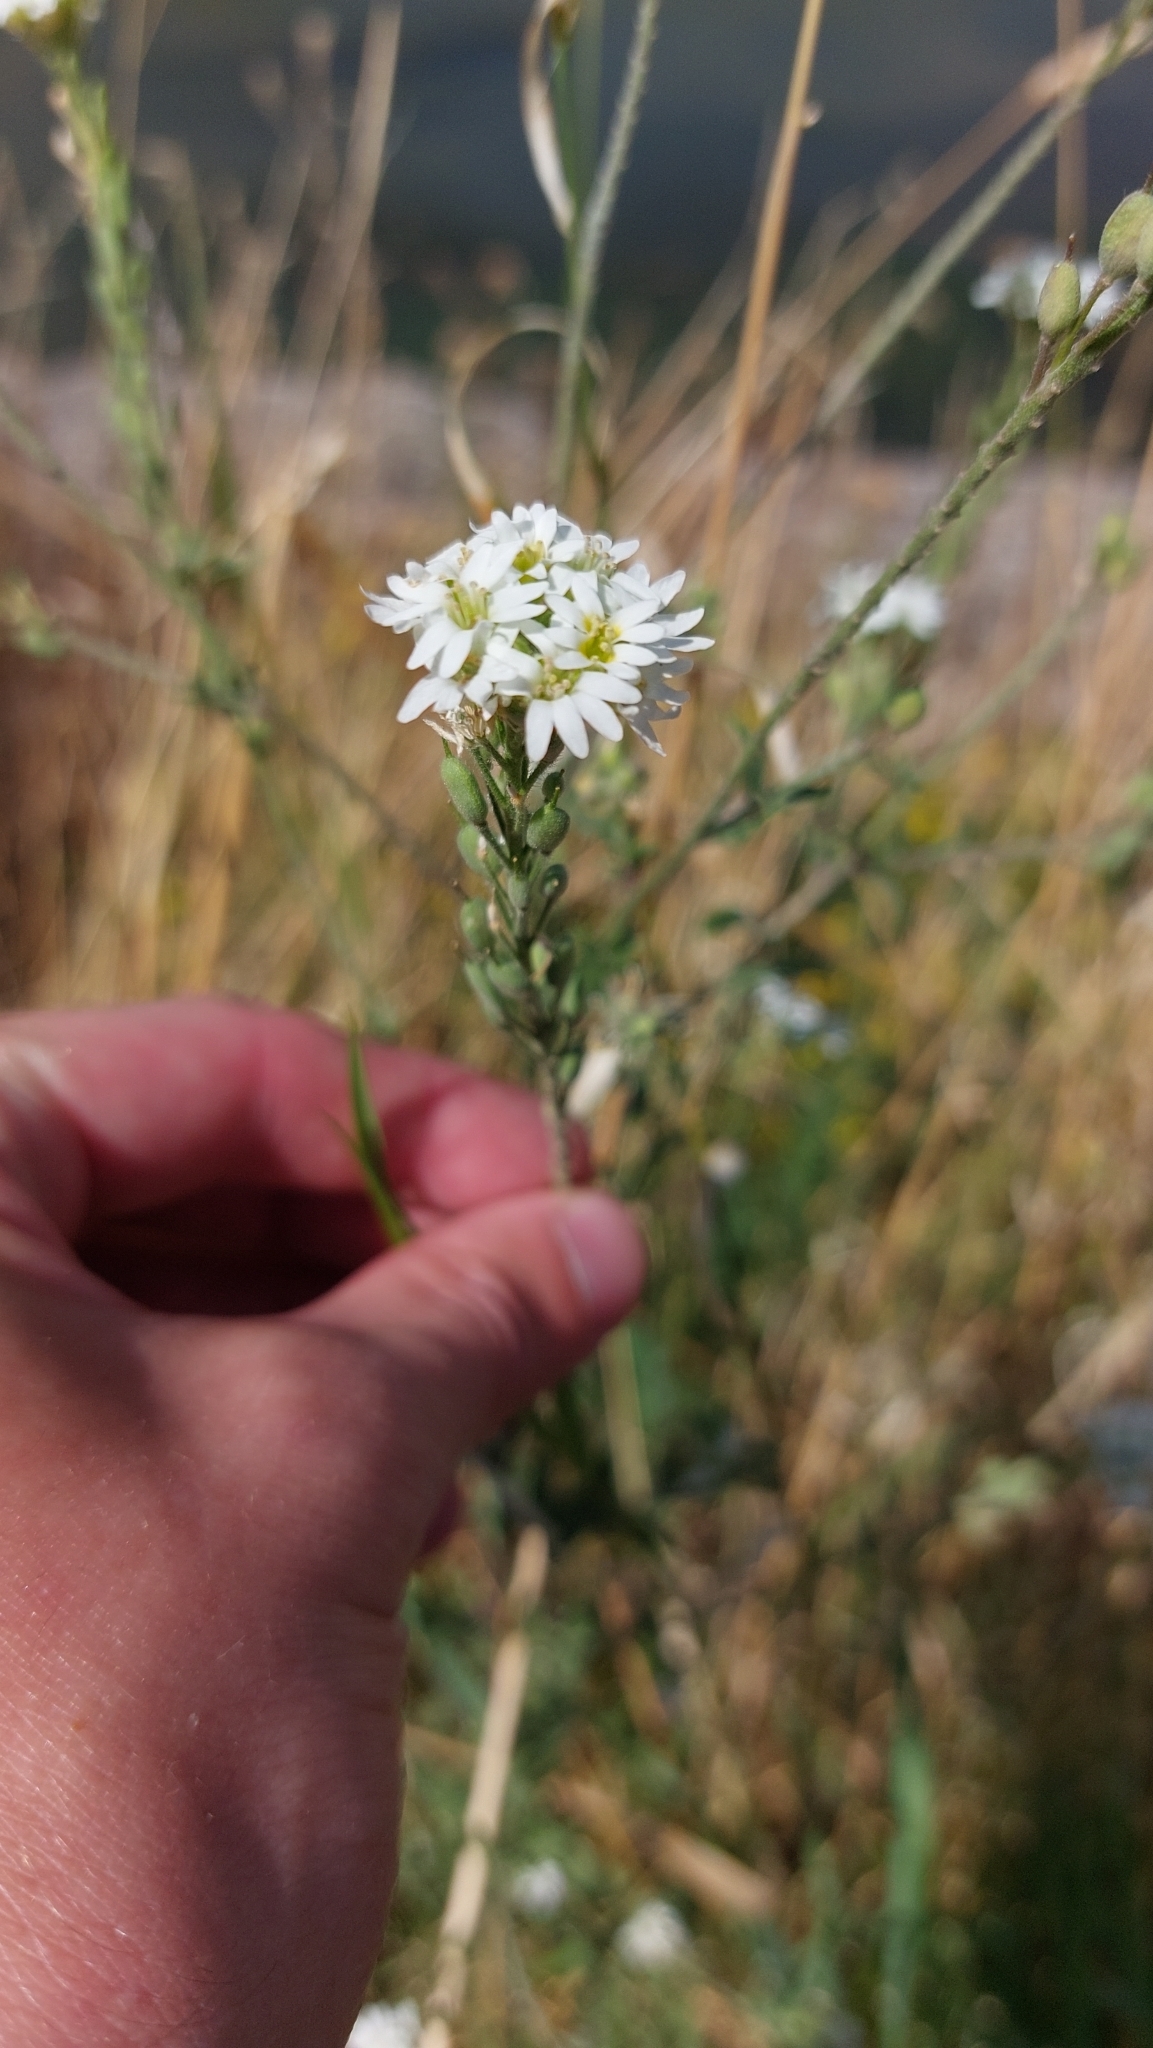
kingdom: Plantae
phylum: Tracheophyta
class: Magnoliopsida
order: Brassicales
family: Brassicaceae
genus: Berteroa
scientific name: Berteroa incana
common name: Hoary alison
